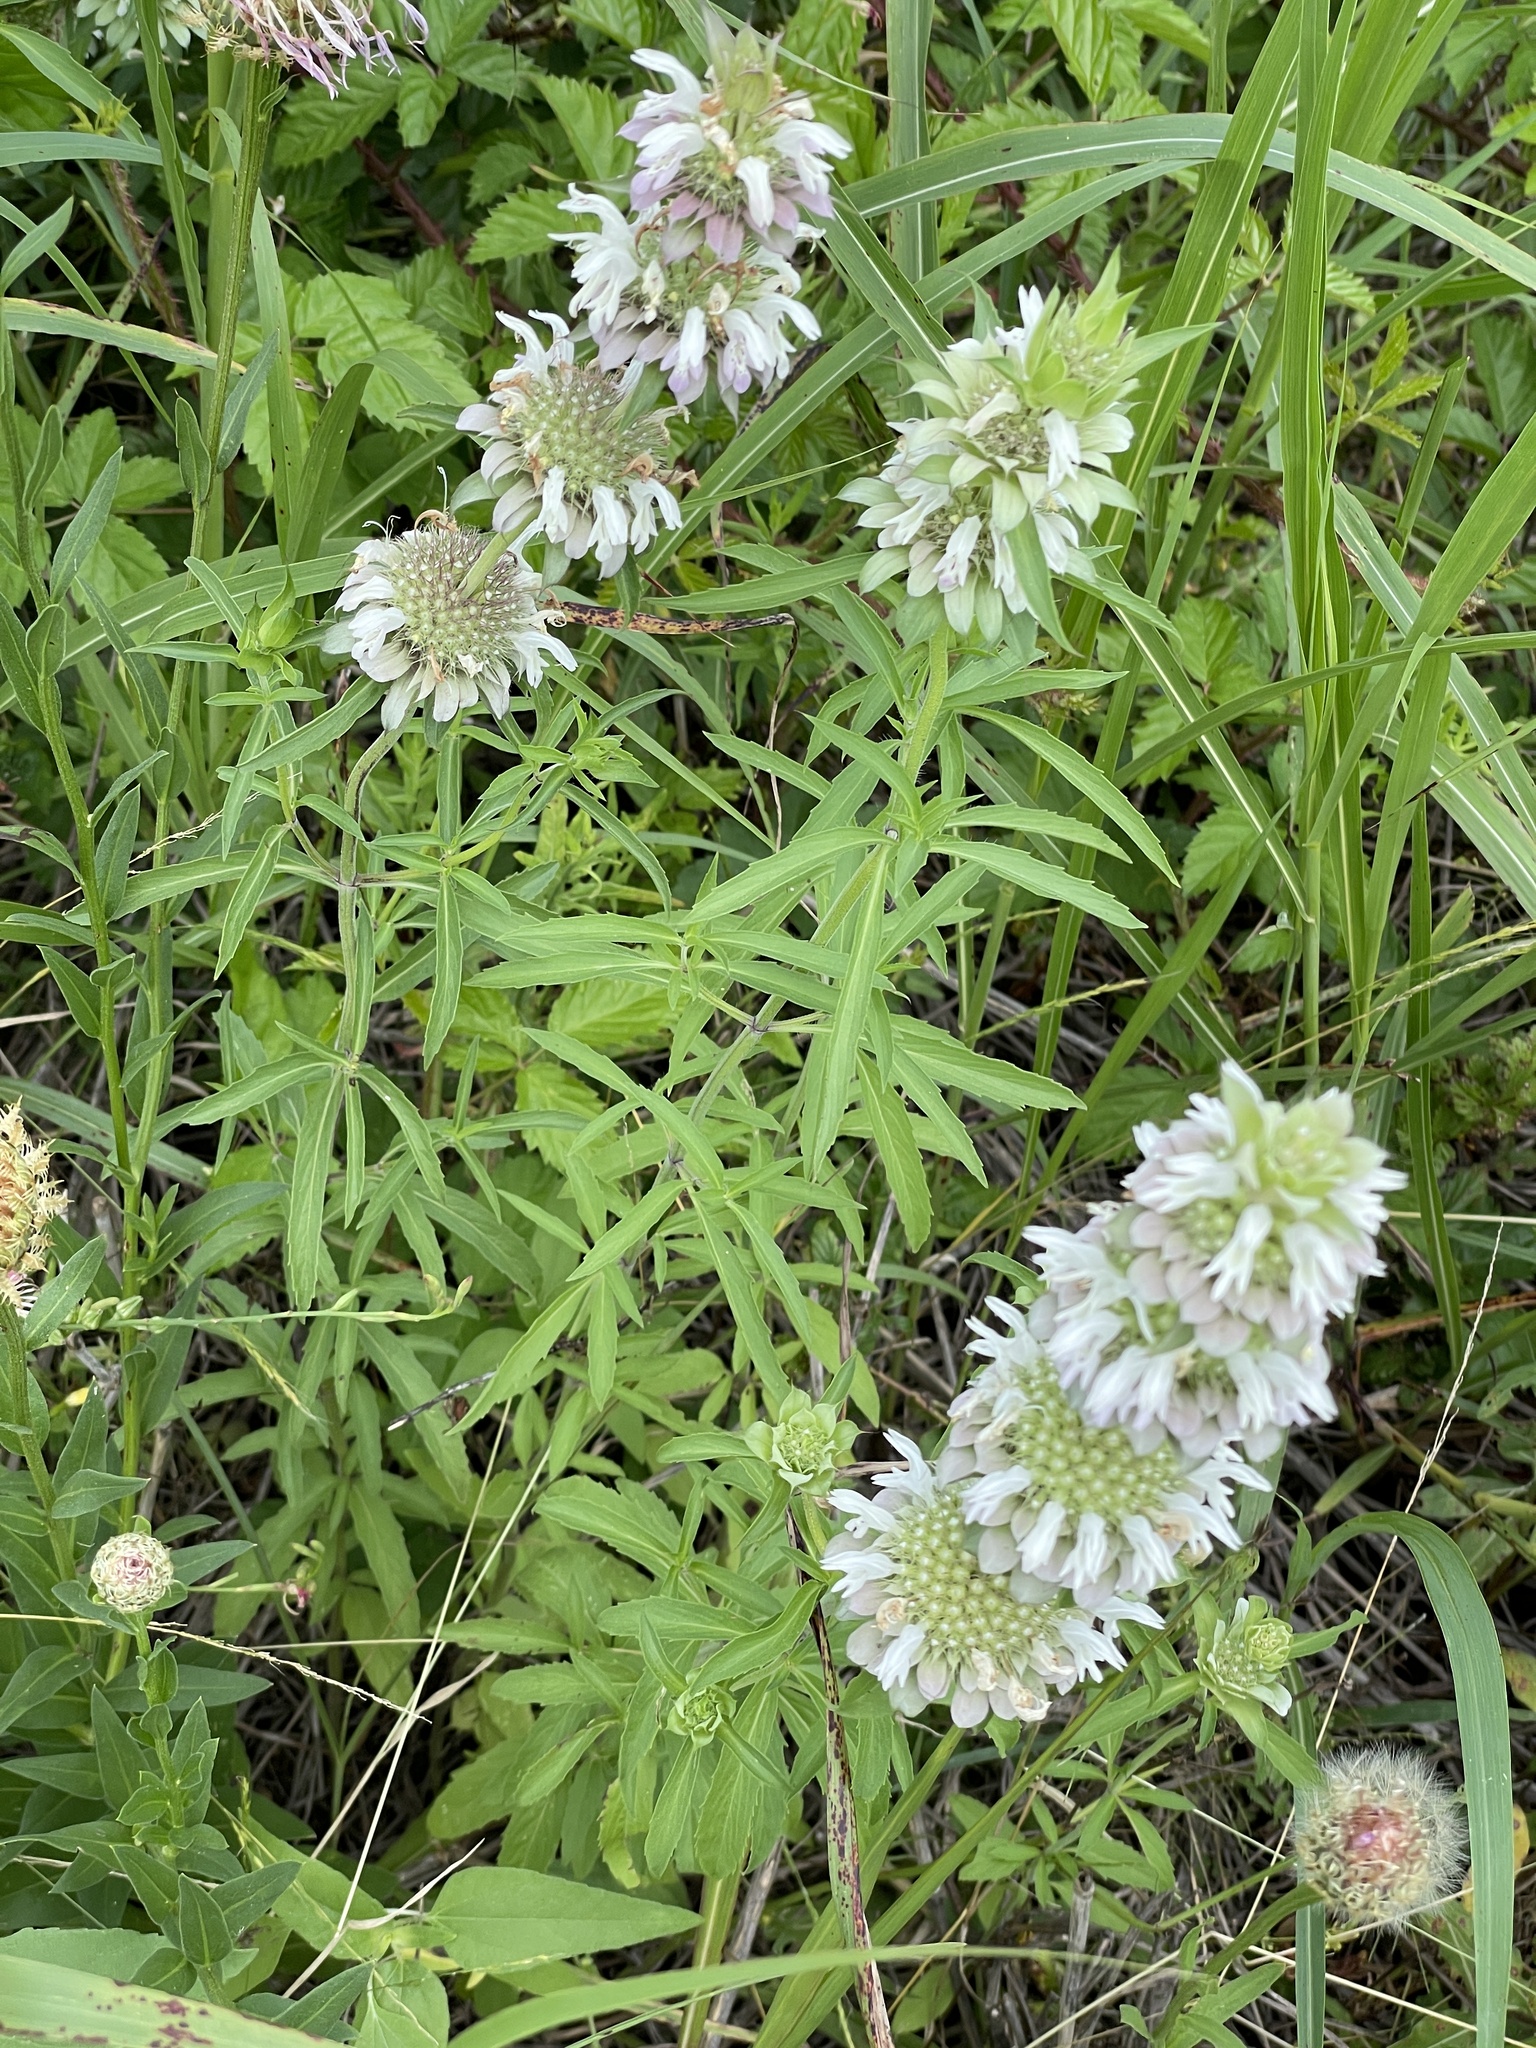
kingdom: Plantae
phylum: Tracheophyta
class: Magnoliopsida
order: Lamiales
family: Lamiaceae
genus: Monarda
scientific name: Monarda citriodora
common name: Lemon beebalm
